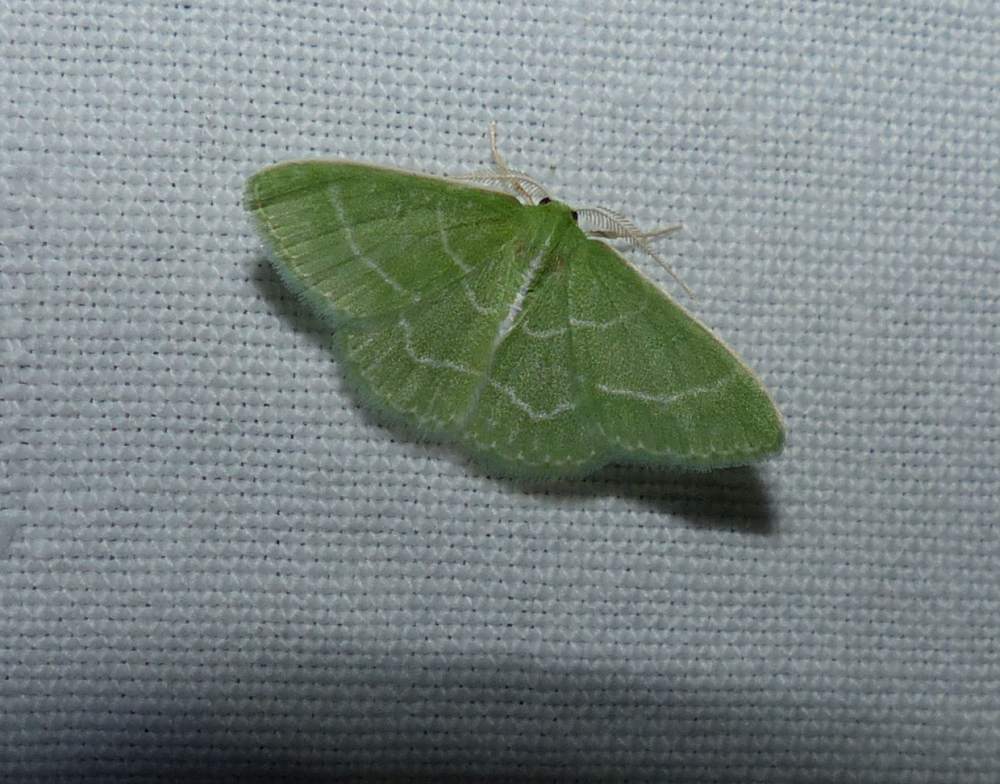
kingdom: Animalia
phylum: Arthropoda
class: Insecta
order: Lepidoptera
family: Geometridae
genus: Synchlora
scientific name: Synchlora aerata
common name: Wavy-lined emerald
